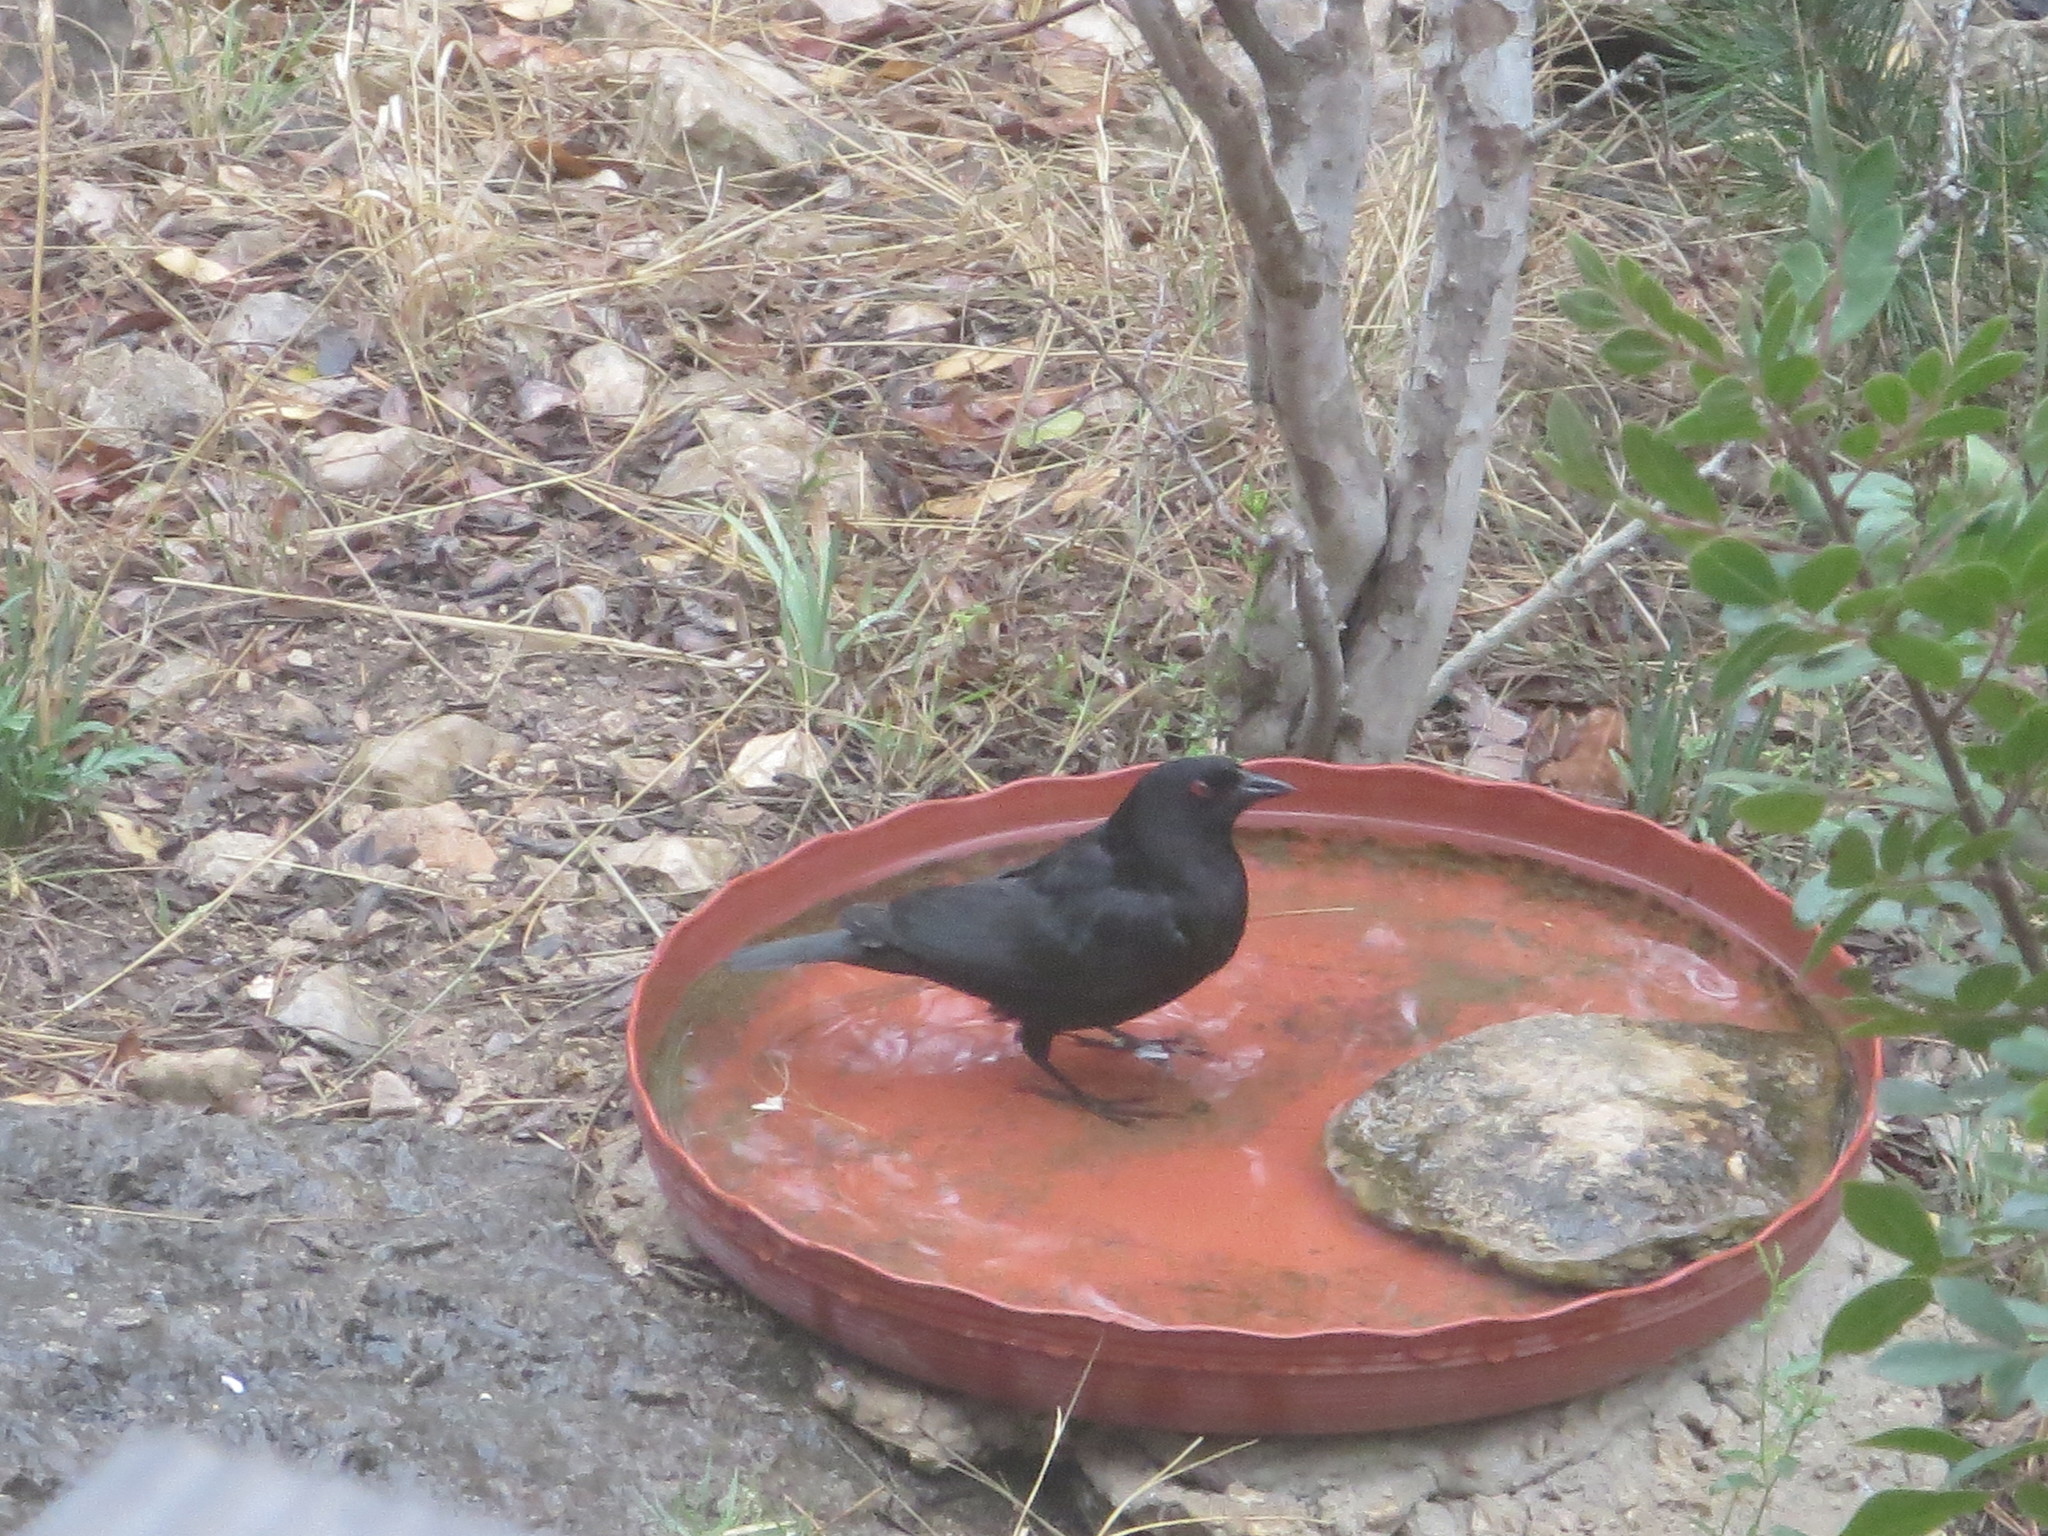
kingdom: Animalia
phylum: Chordata
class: Aves
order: Passeriformes
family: Icteridae
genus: Molothrus
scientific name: Molothrus aeneus
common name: Bronzed cowbird
